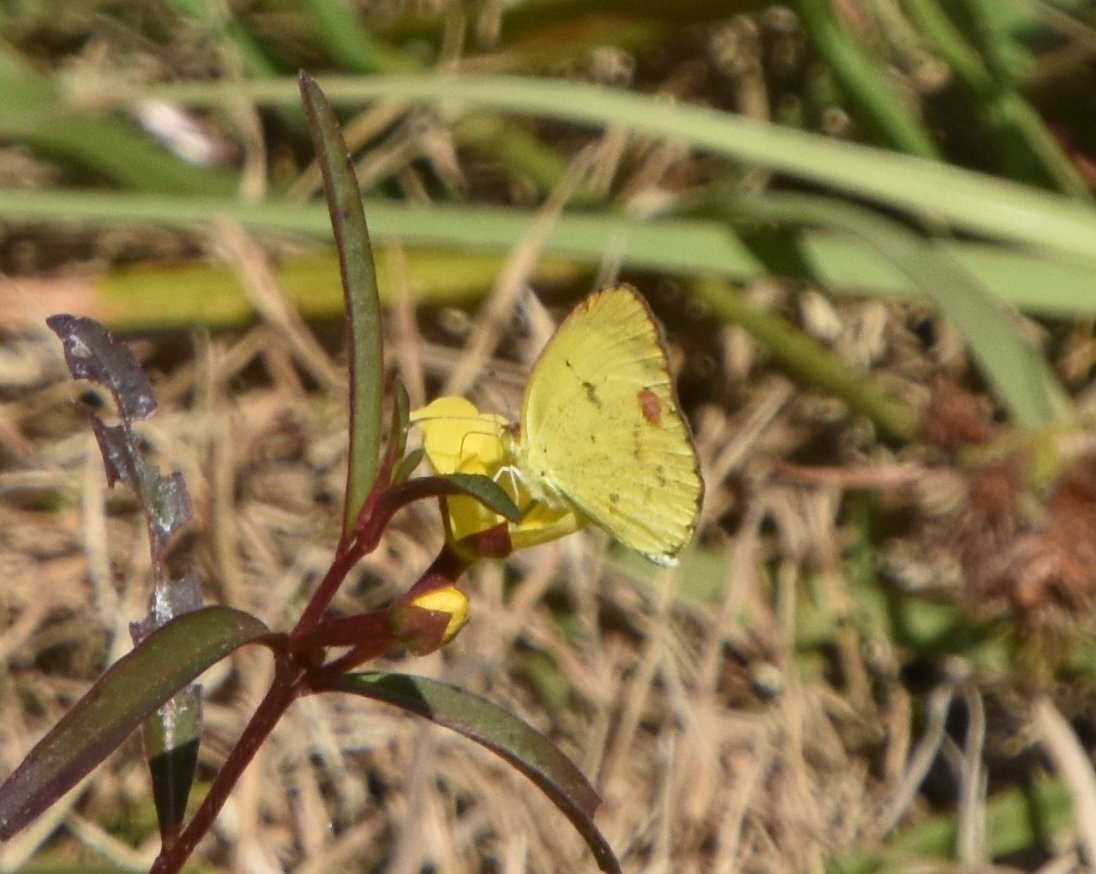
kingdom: Animalia
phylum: Arthropoda
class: Insecta
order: Lepidoptera
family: Pieridae
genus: Pyrisitia
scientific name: Pyrisitia lisa
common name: Little yellow
